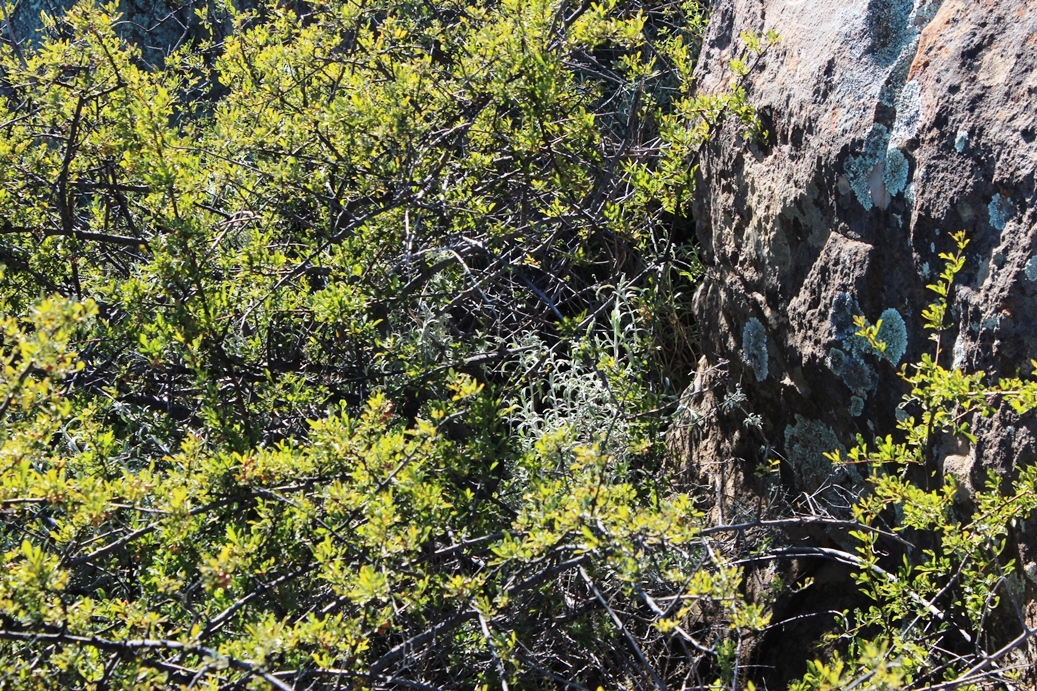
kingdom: Plantae
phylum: Tracheophyta
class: Magnoliopsida
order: Lamiales
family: Lamiaceae
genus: Stachys
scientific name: Stachys rugosa
